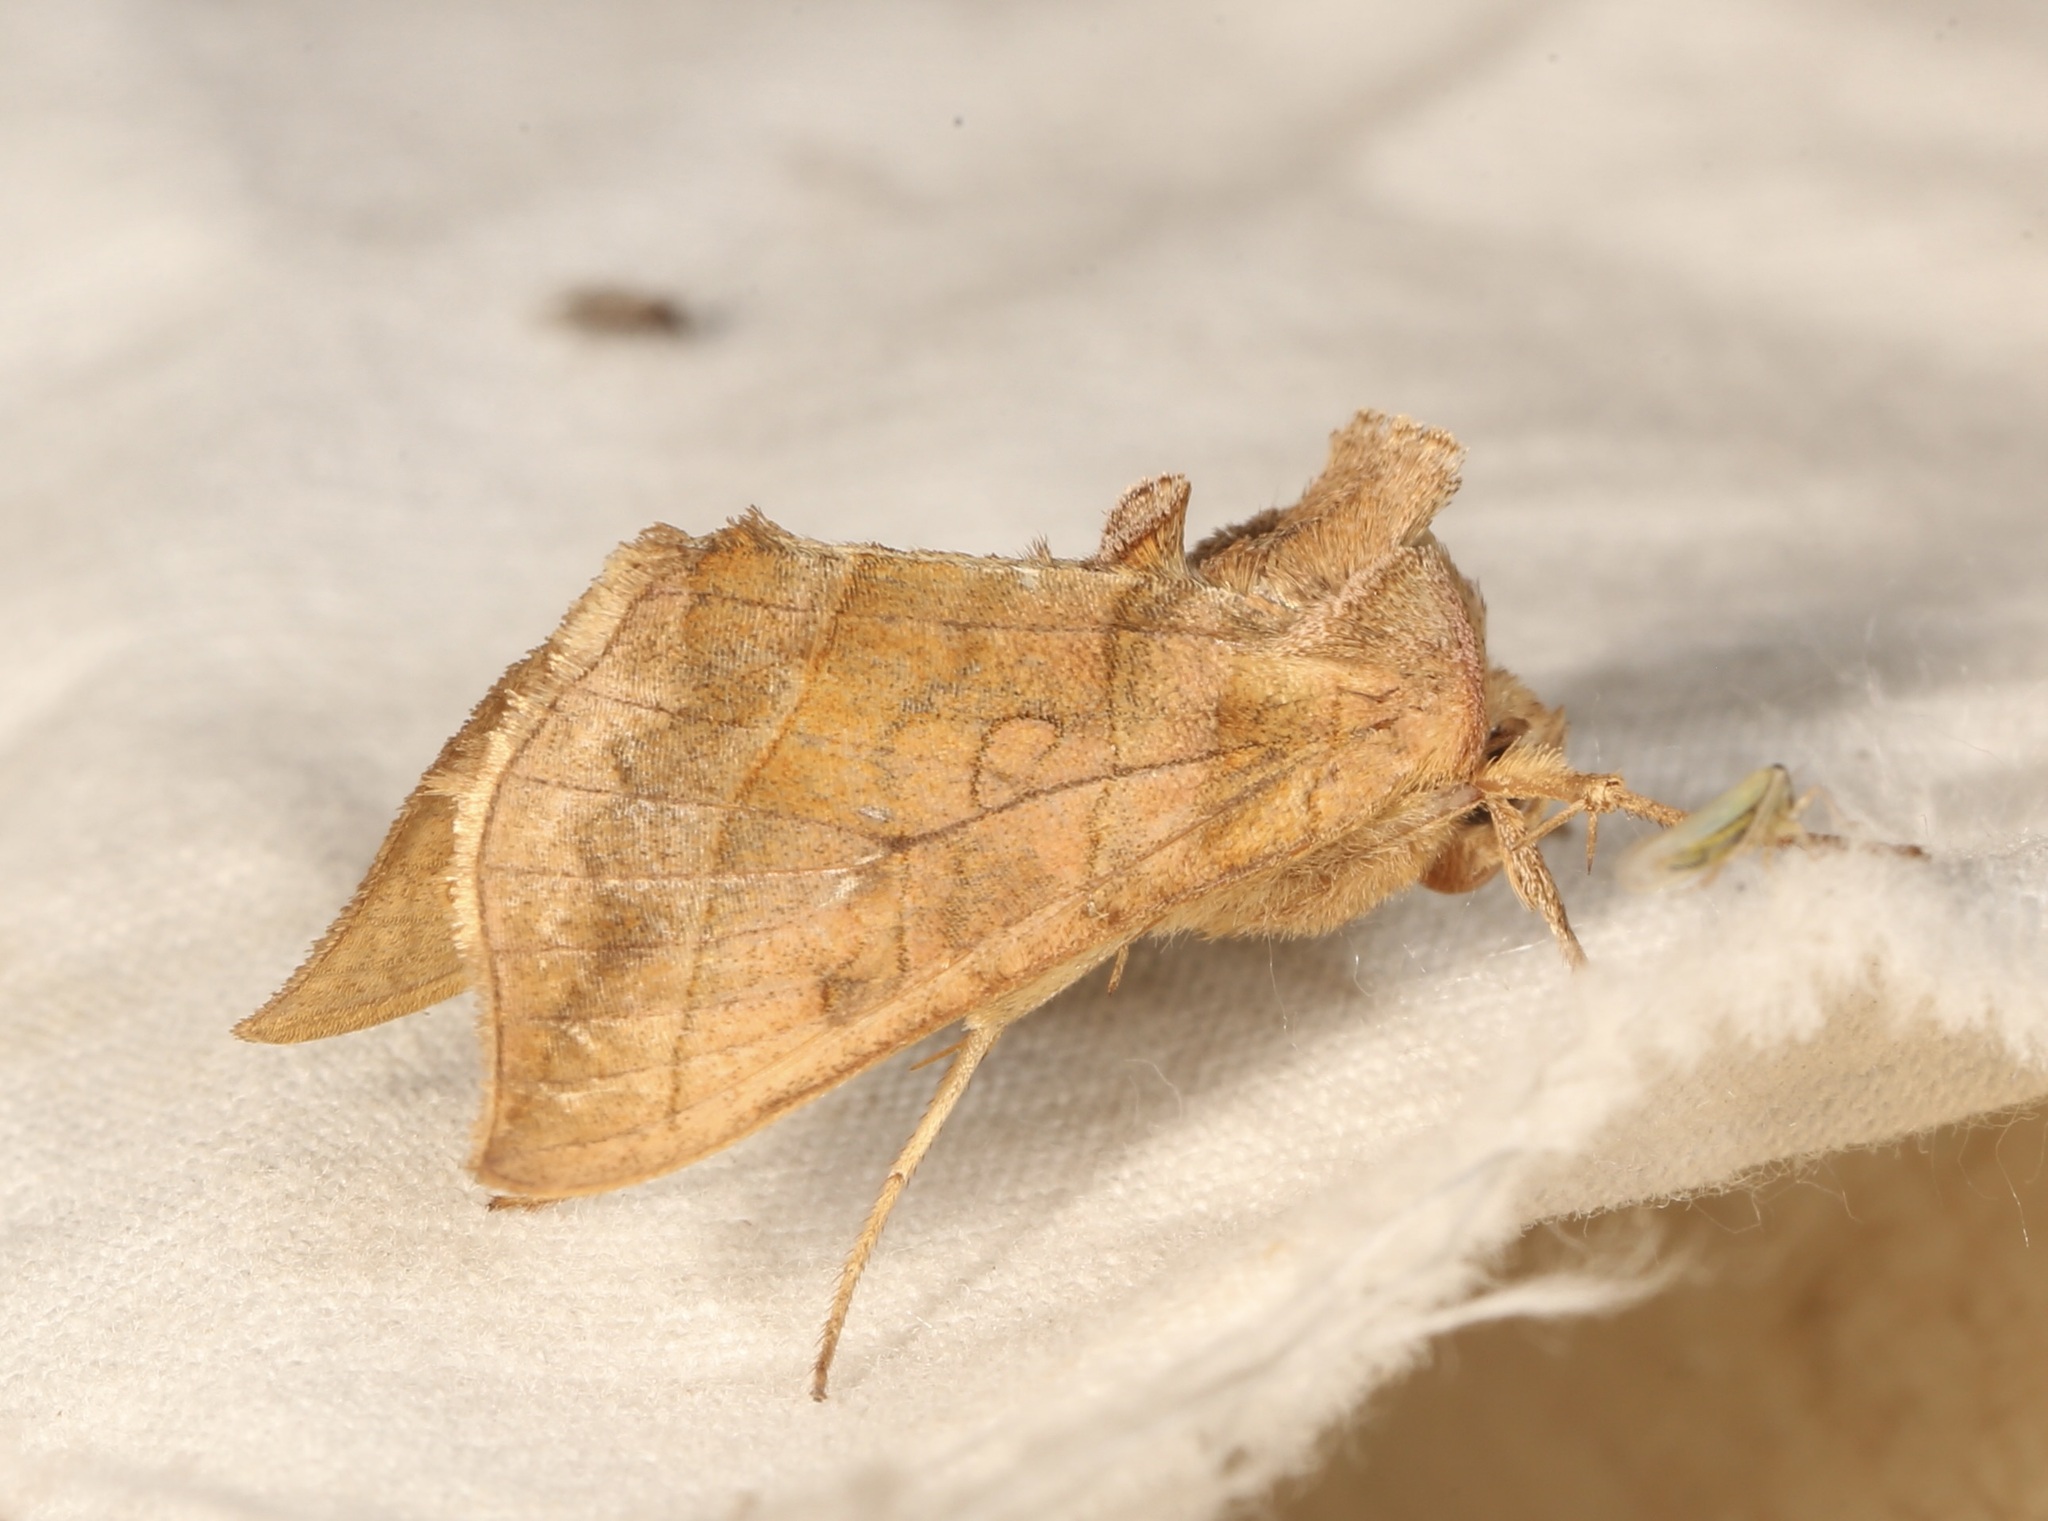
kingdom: Animalia
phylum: Arthropoda
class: Insecta
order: Lepidoptera
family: Noctuidae
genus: Diachrysia
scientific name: Diachrysia aereoides
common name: Dark-spotted looper moth
